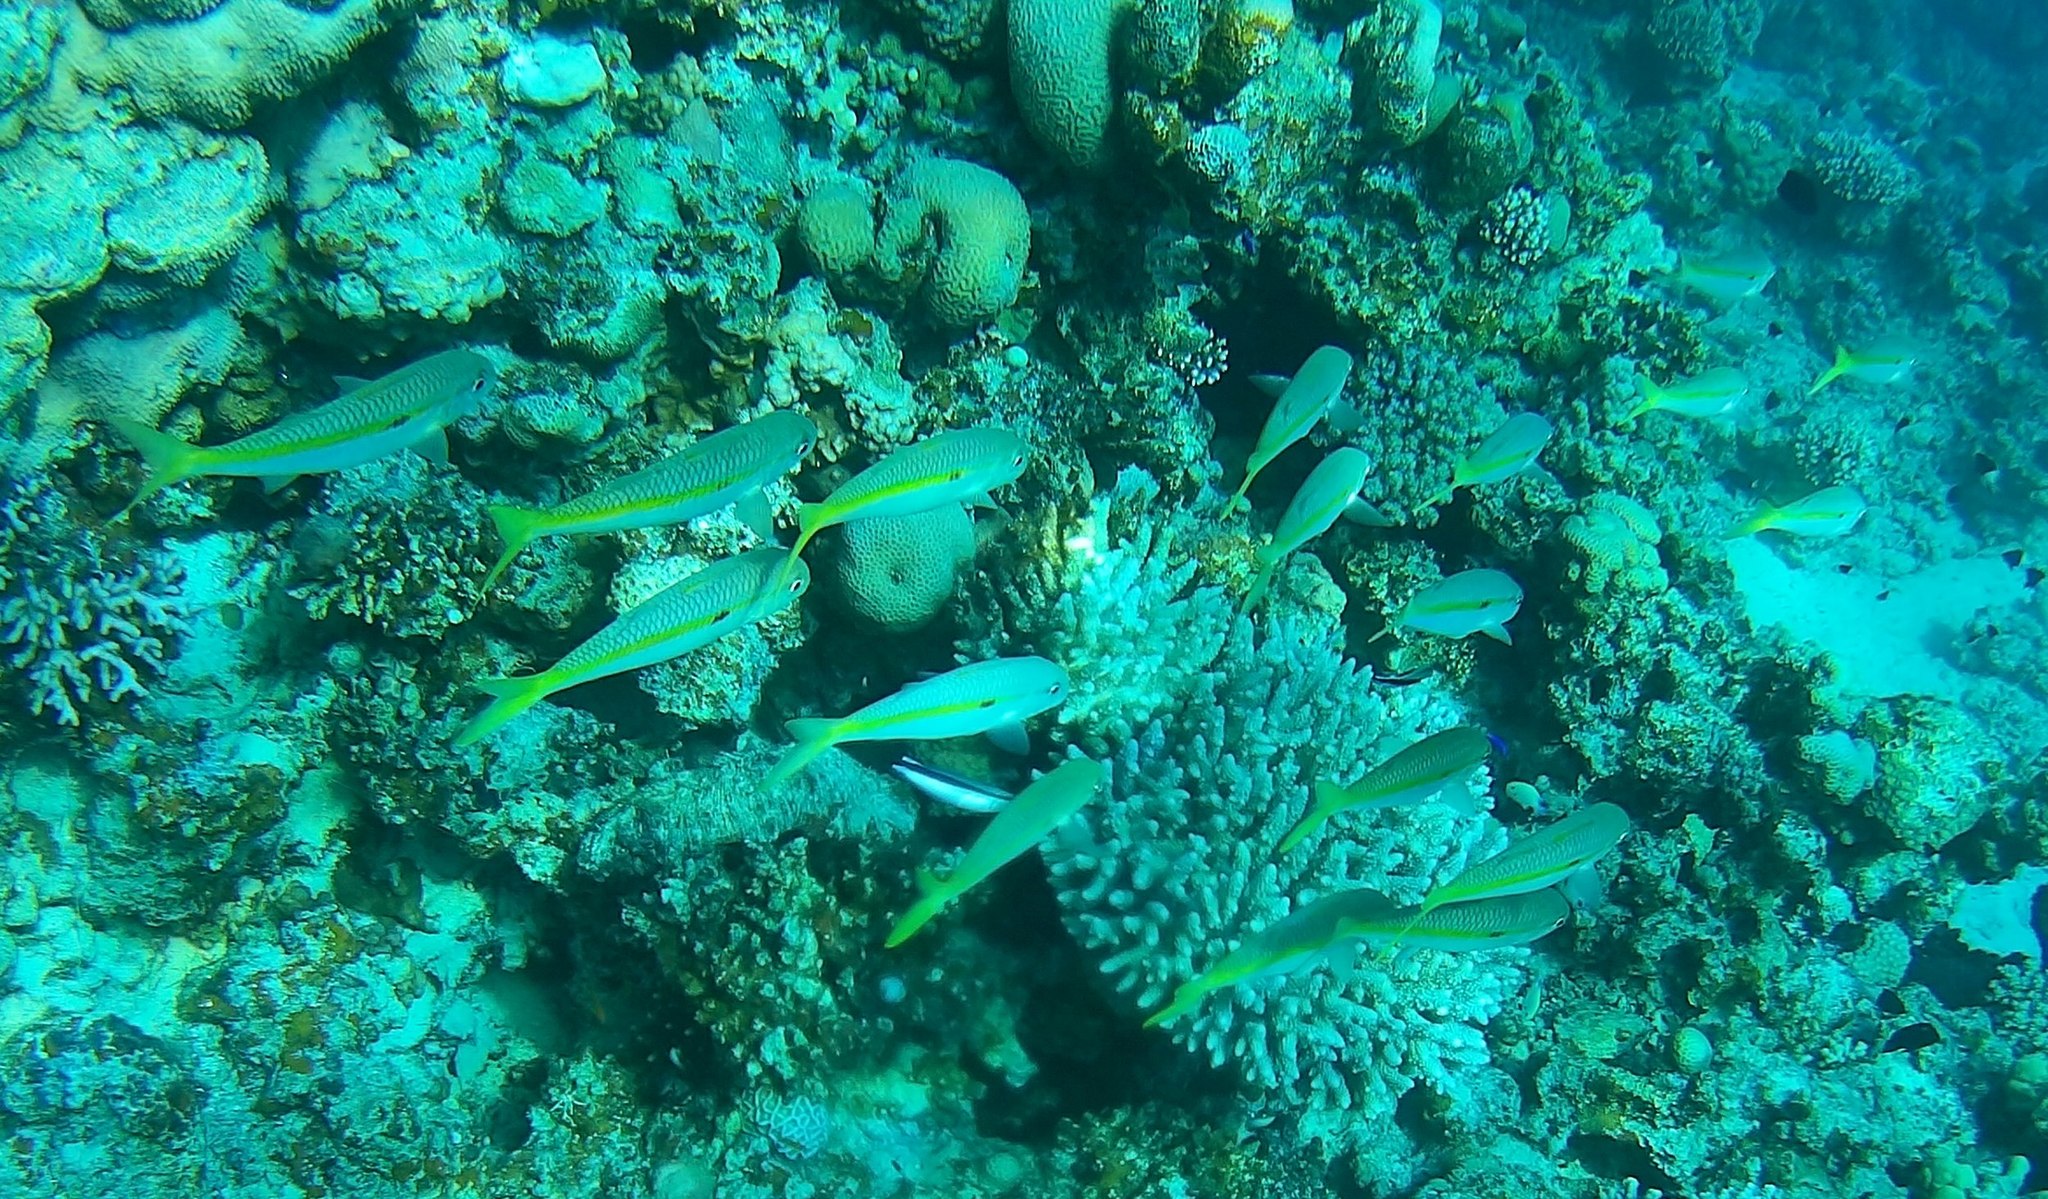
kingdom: Animalia
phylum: Chordata
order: Perciformes
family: Mullidae
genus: Mulloidichthys
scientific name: Mulloidichthys flavolineatus
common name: Yellowstripe goatfish
